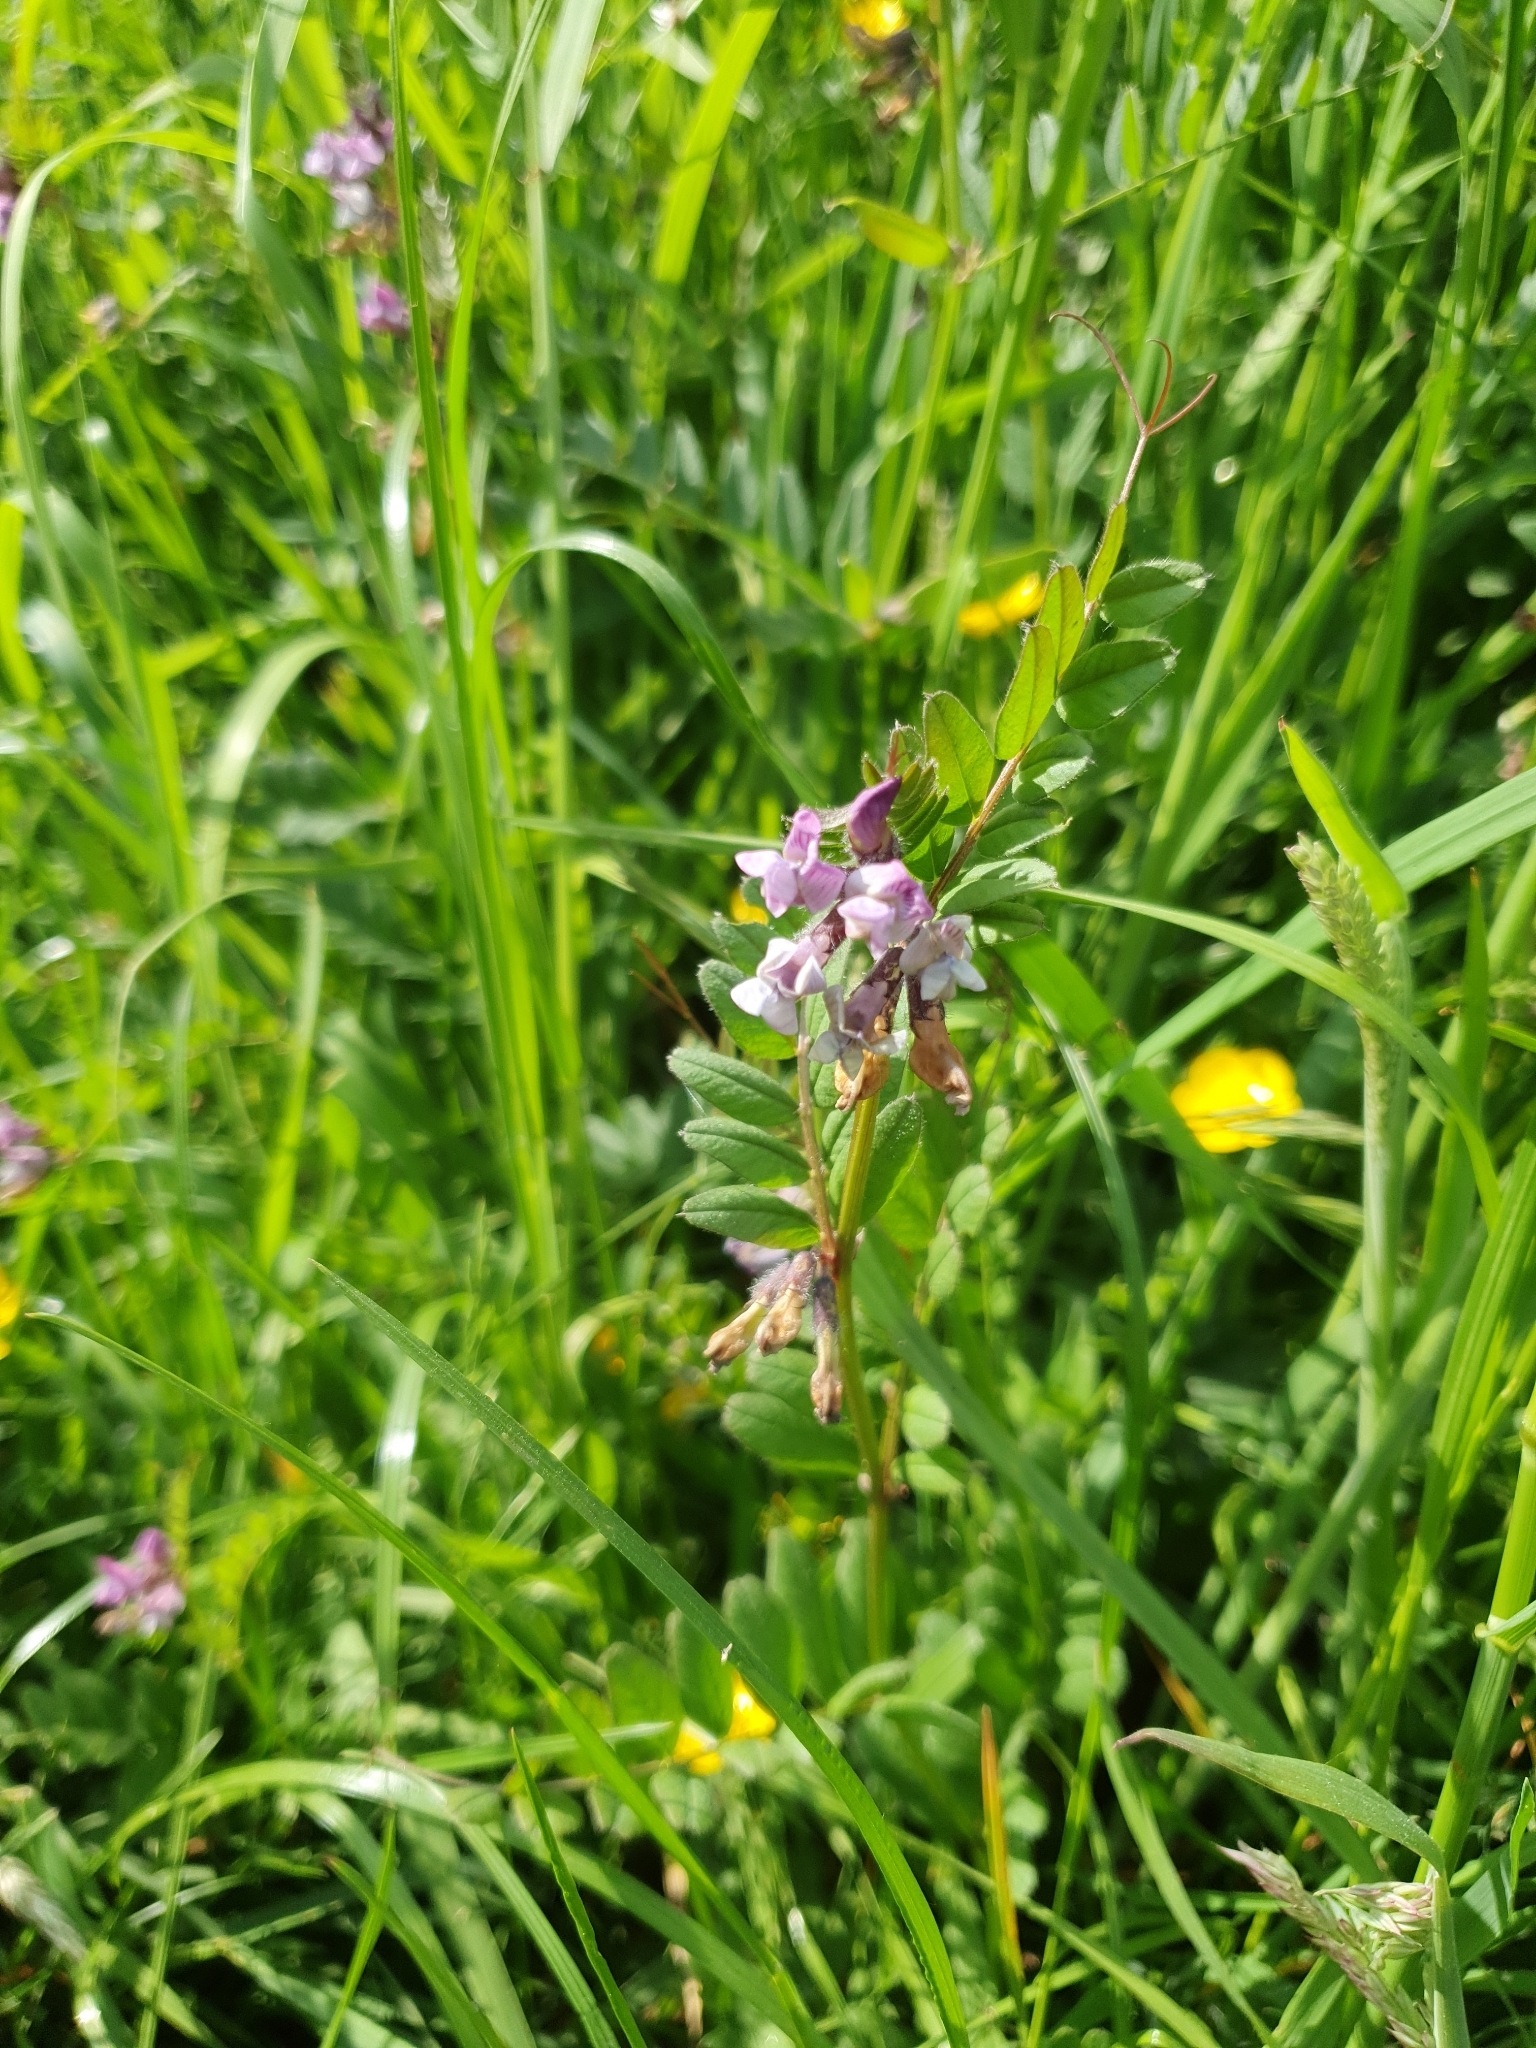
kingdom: Plantae
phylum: Tracheophyta
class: Magnoliopsida
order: Fabales
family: Fabaceae
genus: Vicia
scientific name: Vicia sepium
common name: Bush vetch
